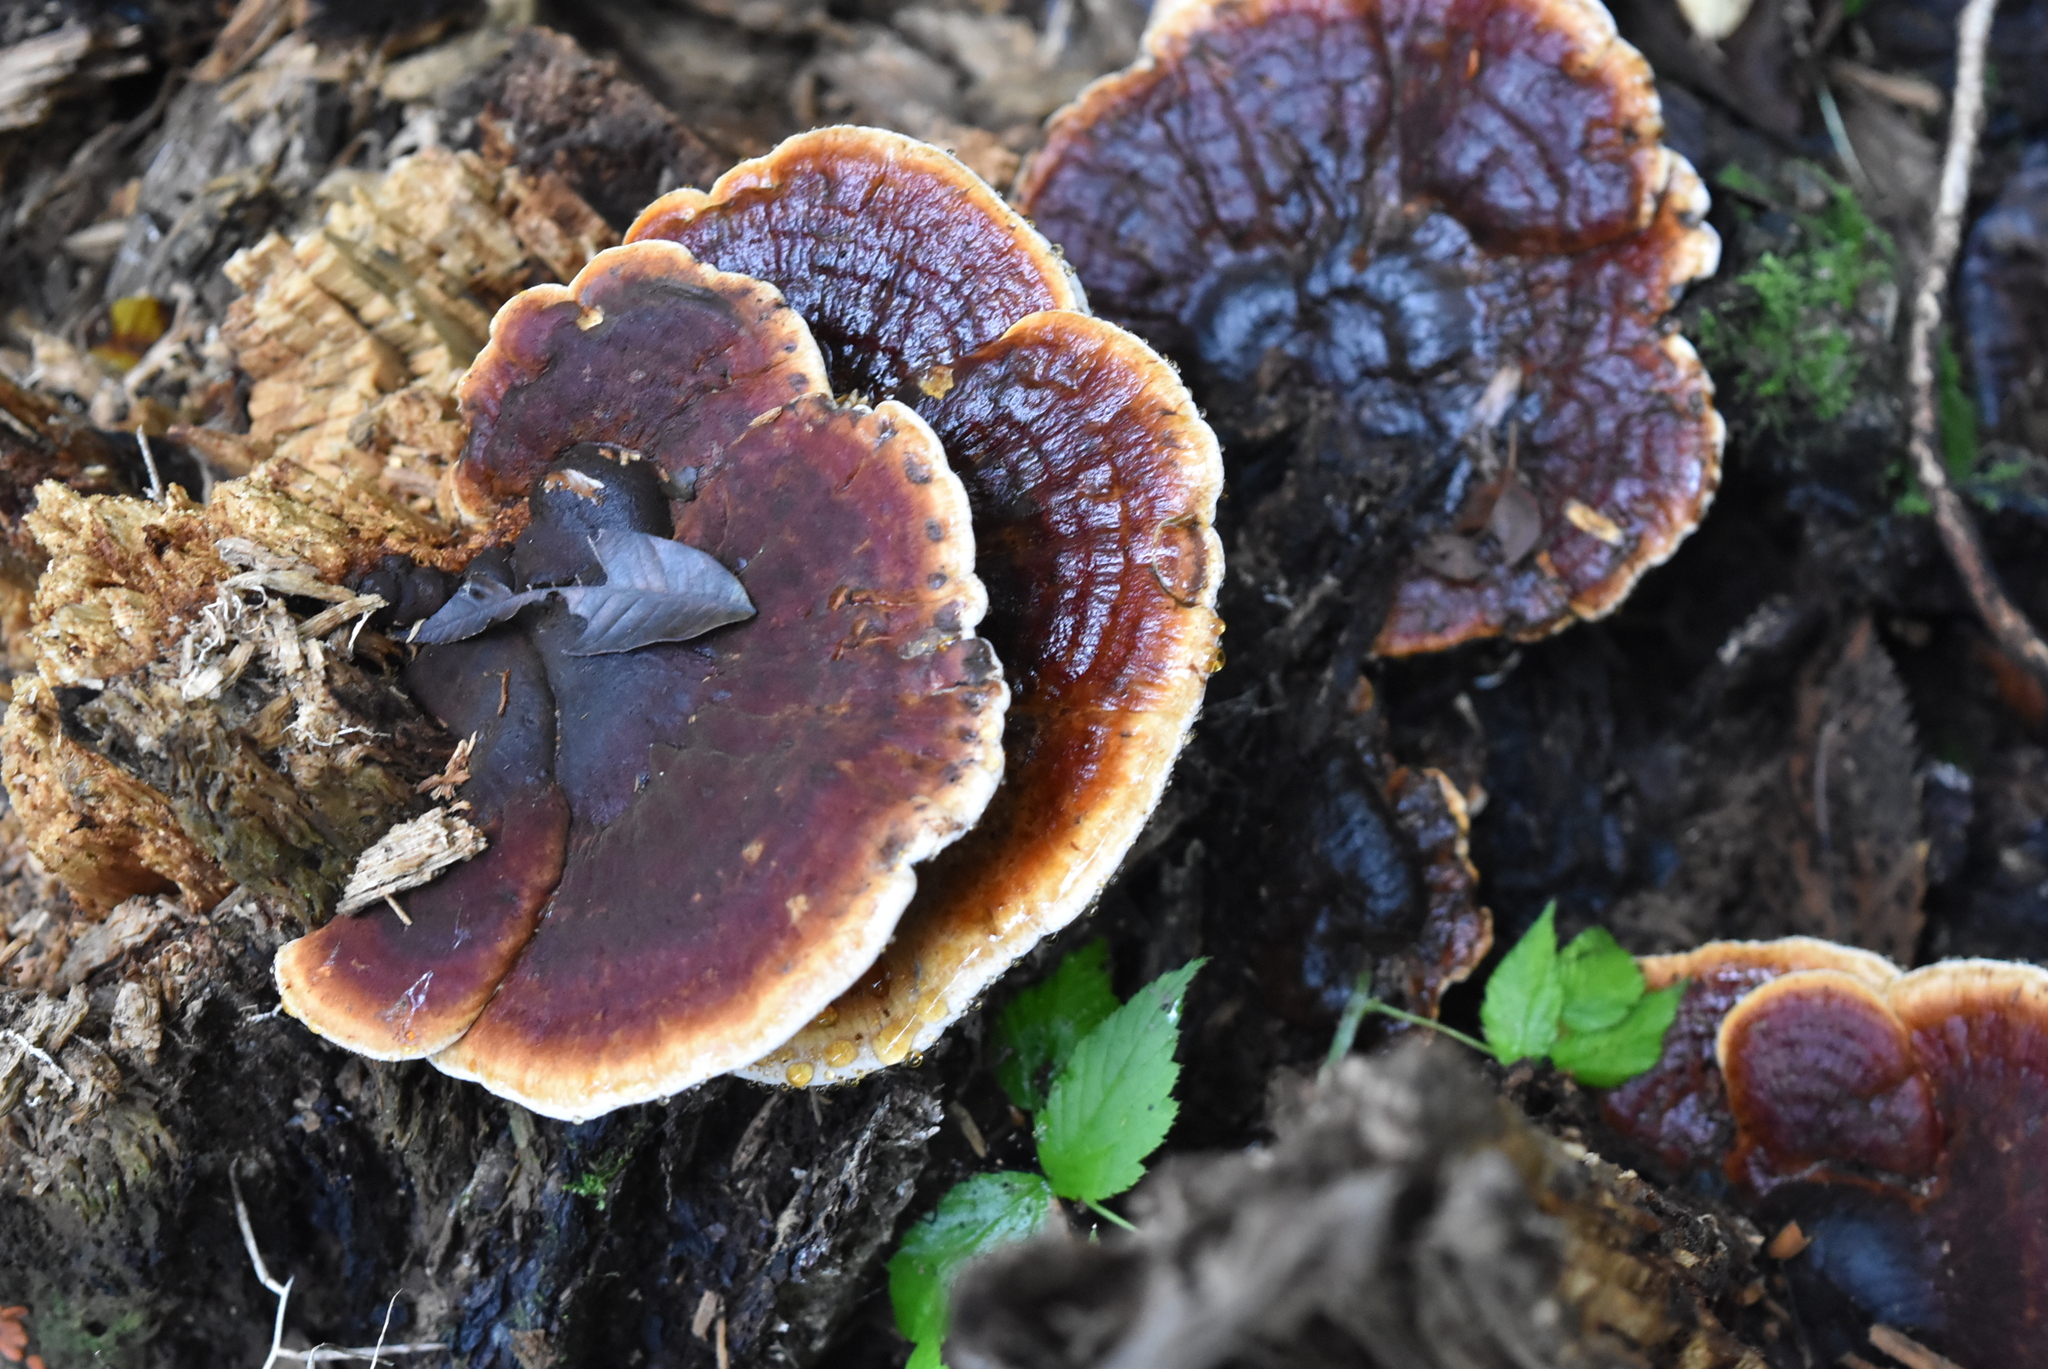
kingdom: Fungi
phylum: Basidiomycota
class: Agaricomycetes
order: Polyporales
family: Ischnodermataceae
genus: Ischnoderma
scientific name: Ischnoderma resinosum
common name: Resinous polypore
